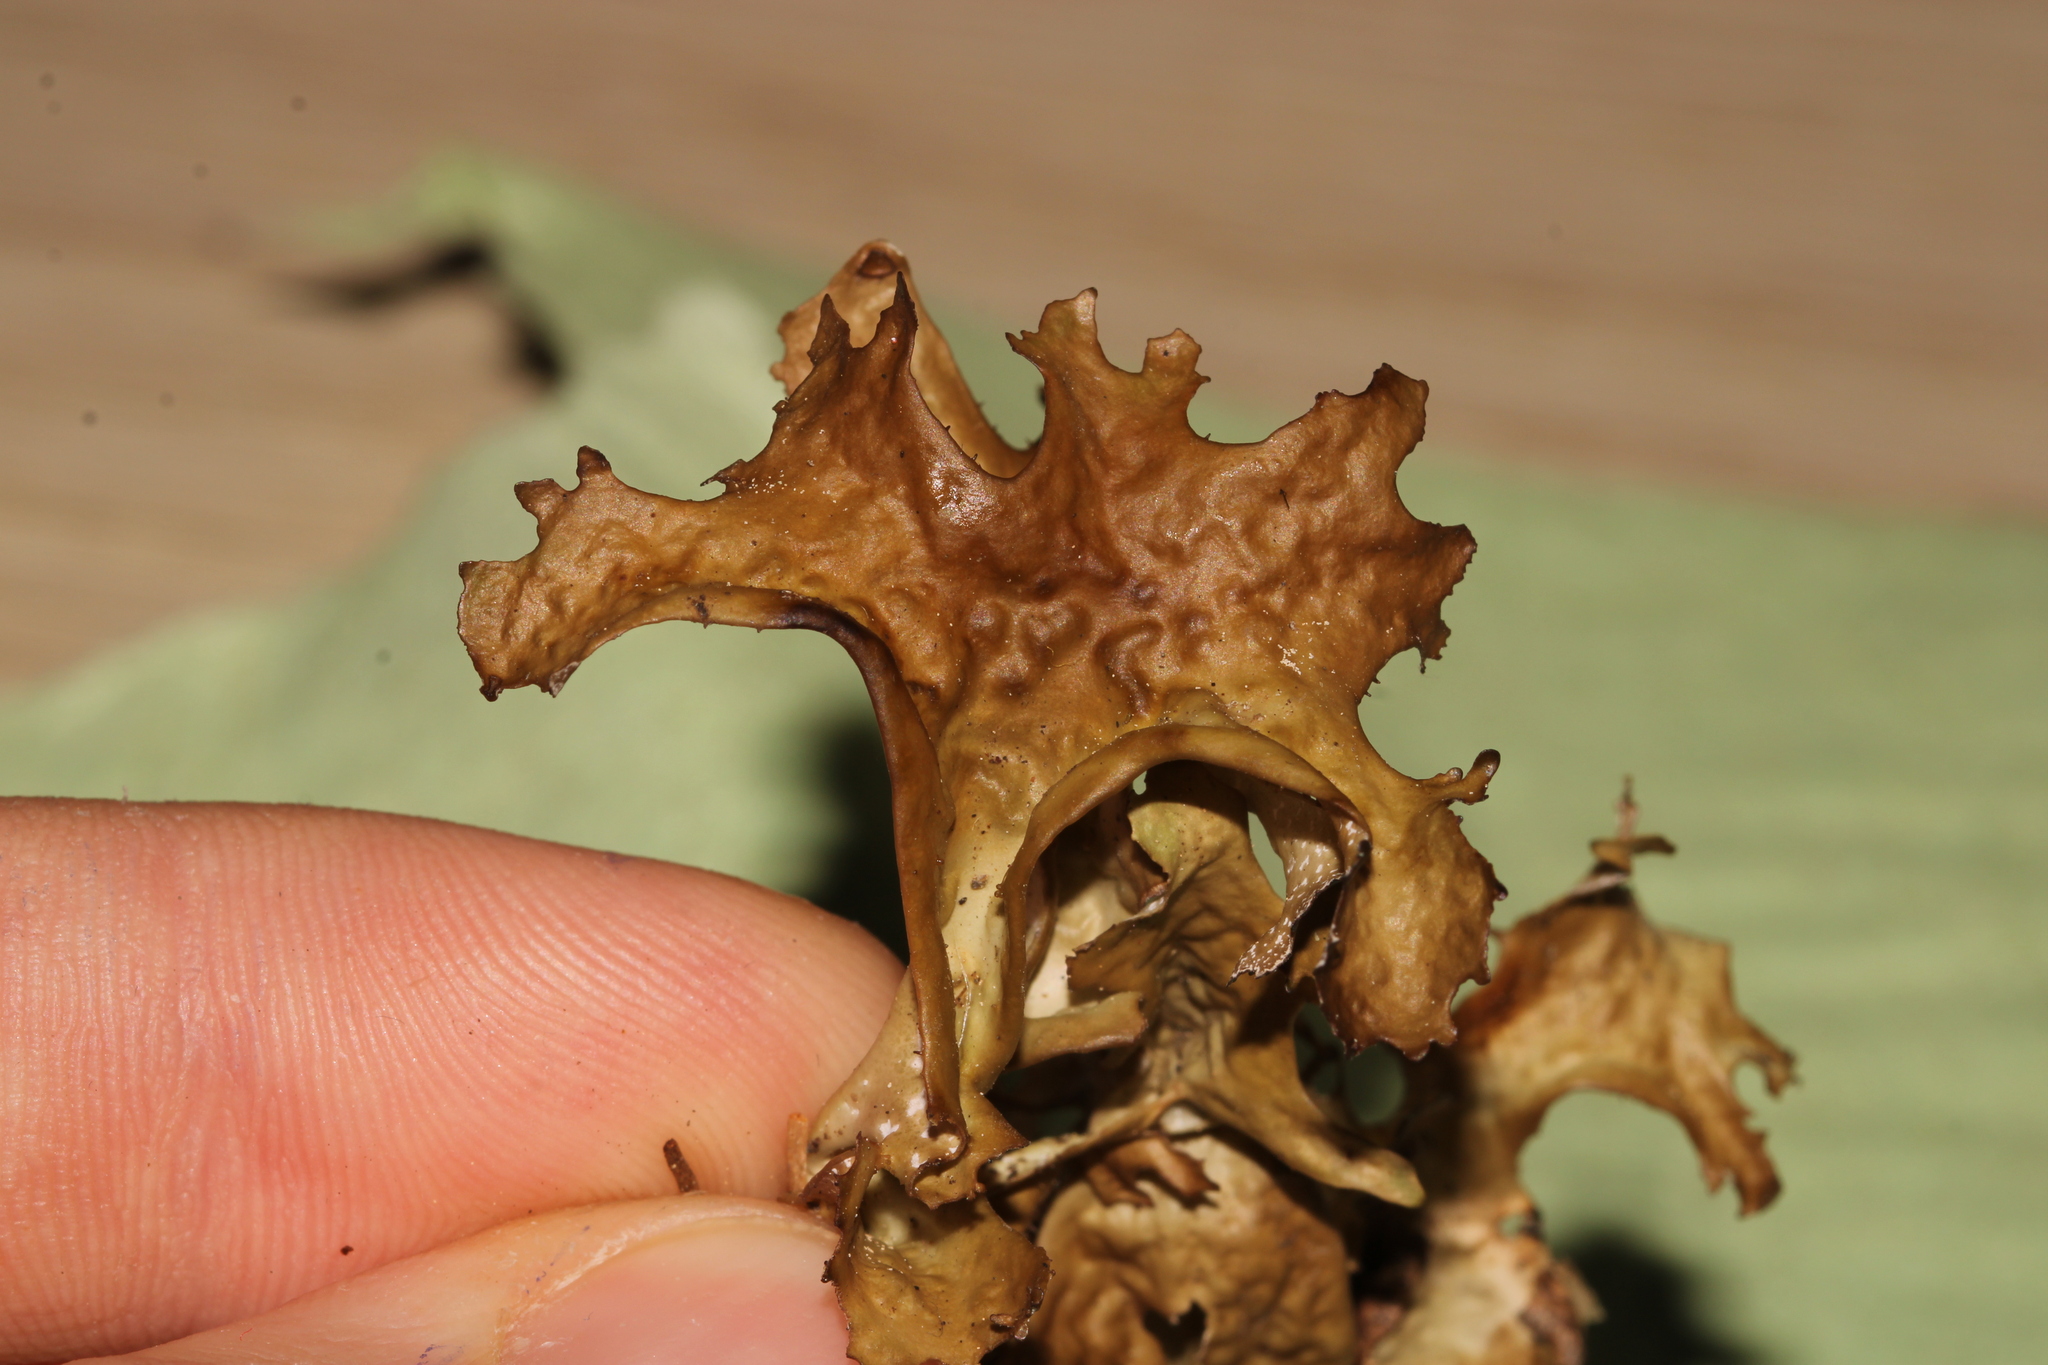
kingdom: Fungi
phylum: Ascomycota
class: Lecanoromycetes
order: Lecanorales
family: Parmeliaceae
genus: Cetraria
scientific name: Cetraria islandica
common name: Iceland lichen
